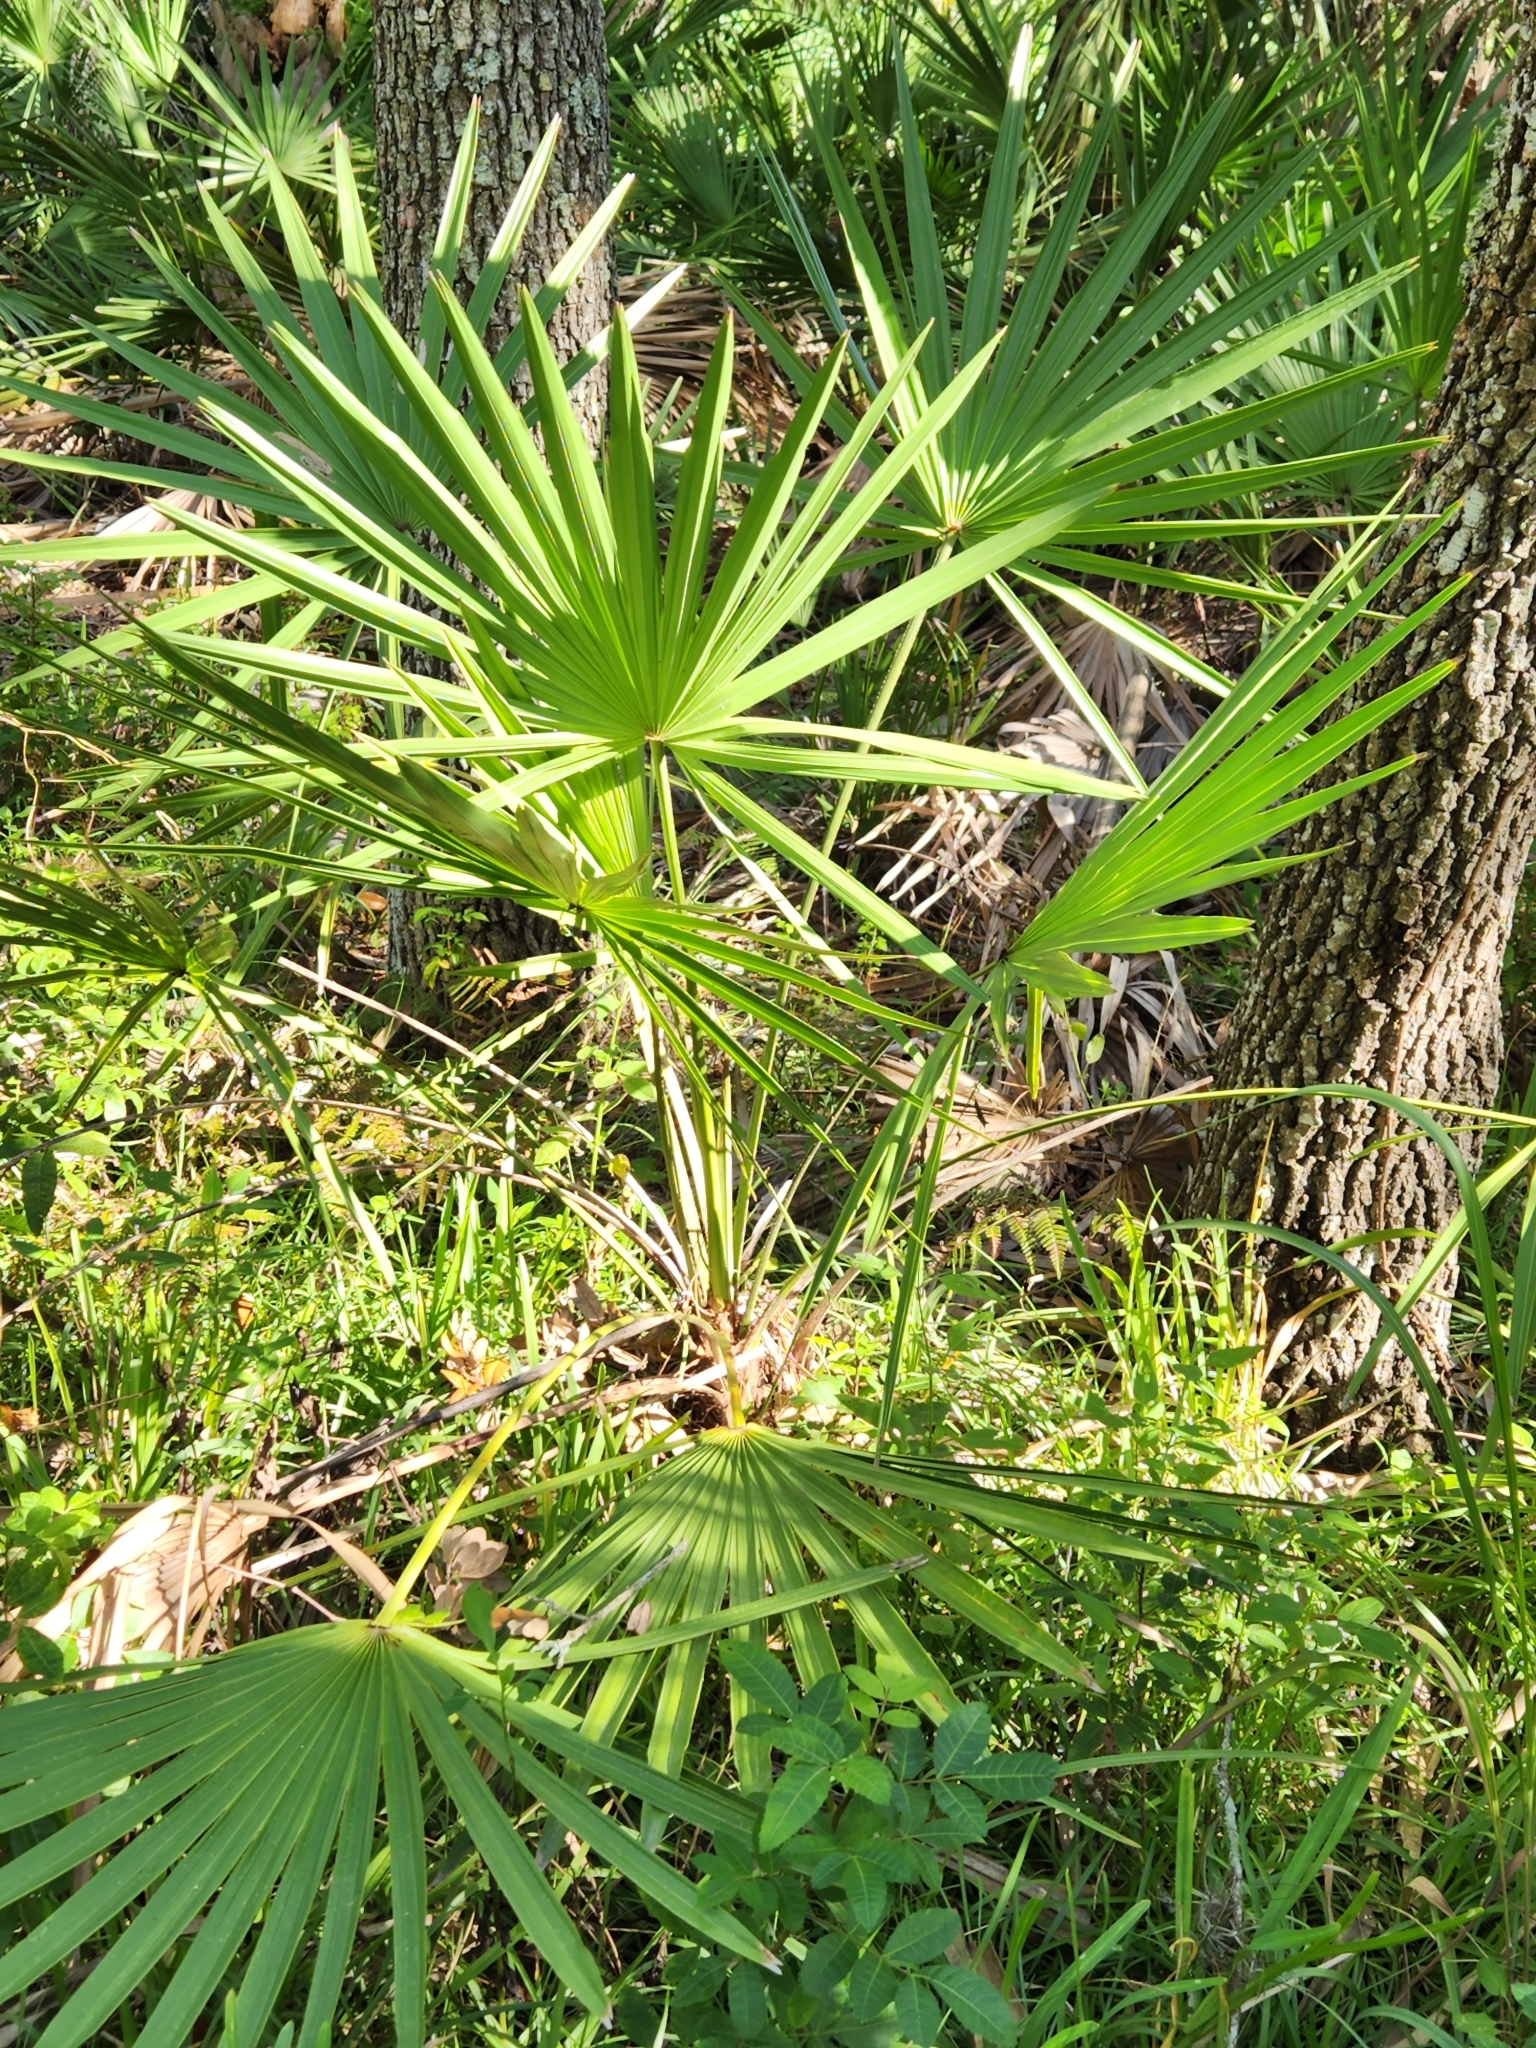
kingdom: Plantae
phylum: Tracheophyta
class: Liliopsida
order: Arecales
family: Arecaceae
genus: Serenoa
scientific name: Serenoa repens
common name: Saw-palmetto
